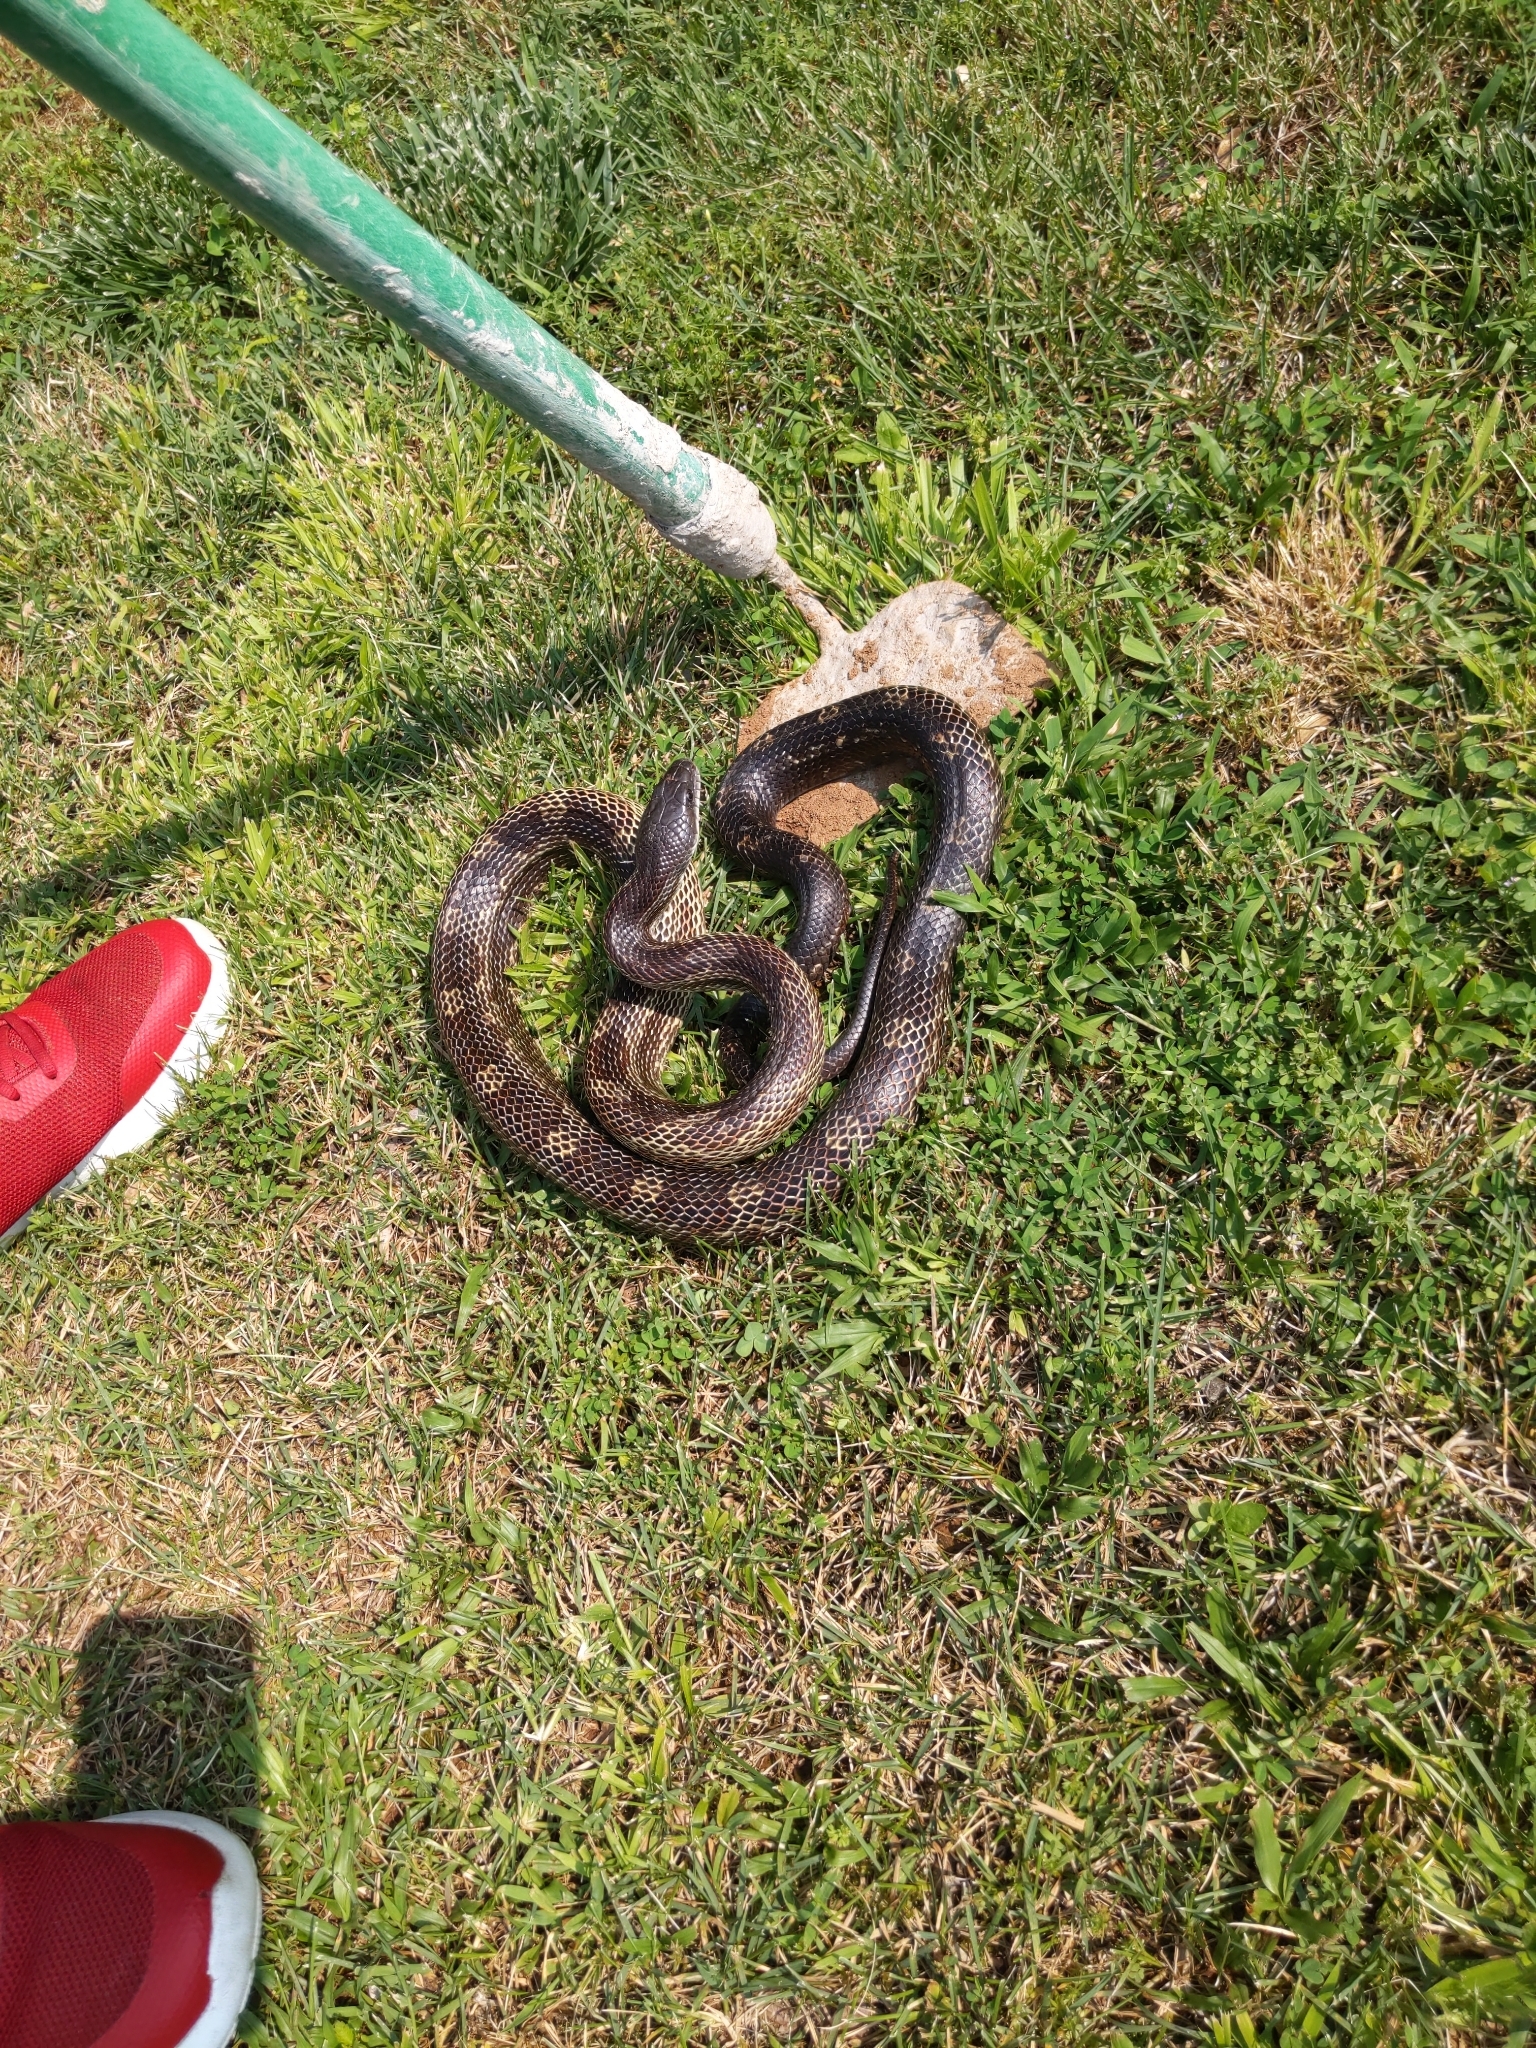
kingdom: Animalia
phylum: Chordata
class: Squamata
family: Colubridae
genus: Pantherophis
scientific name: Pantherophis spiloides
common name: Gray rat snake
